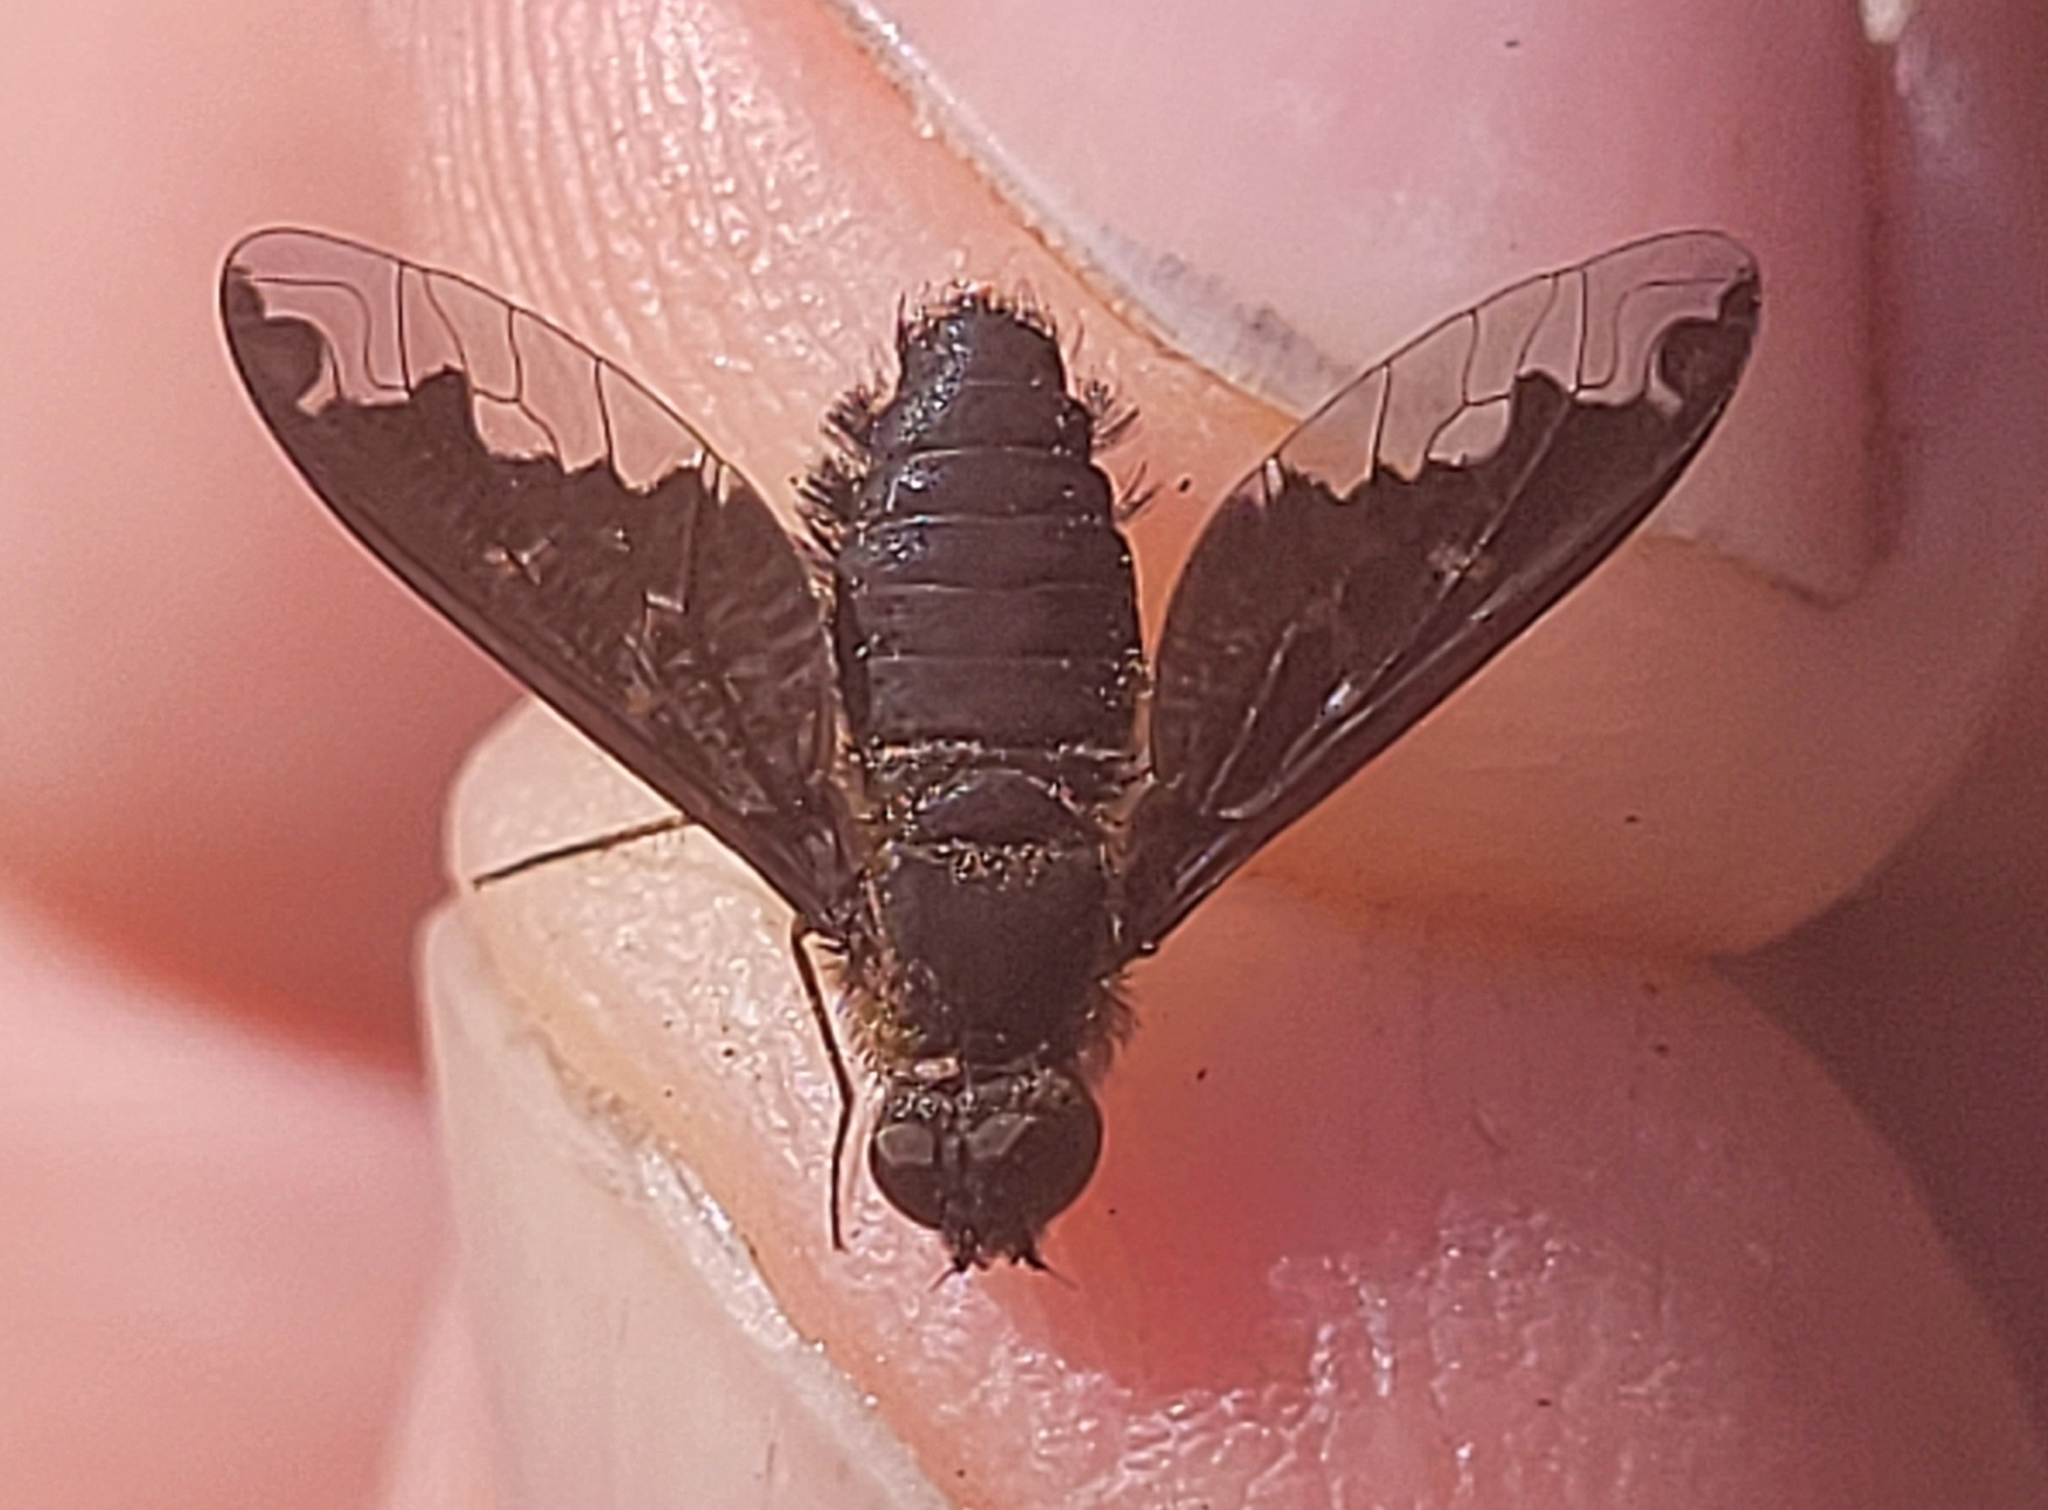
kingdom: Animalia
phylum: Arthropoda
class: Insecta
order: Diptera
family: Bombyliidae
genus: Hemipenthes
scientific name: Hemipenthes sinuosus
